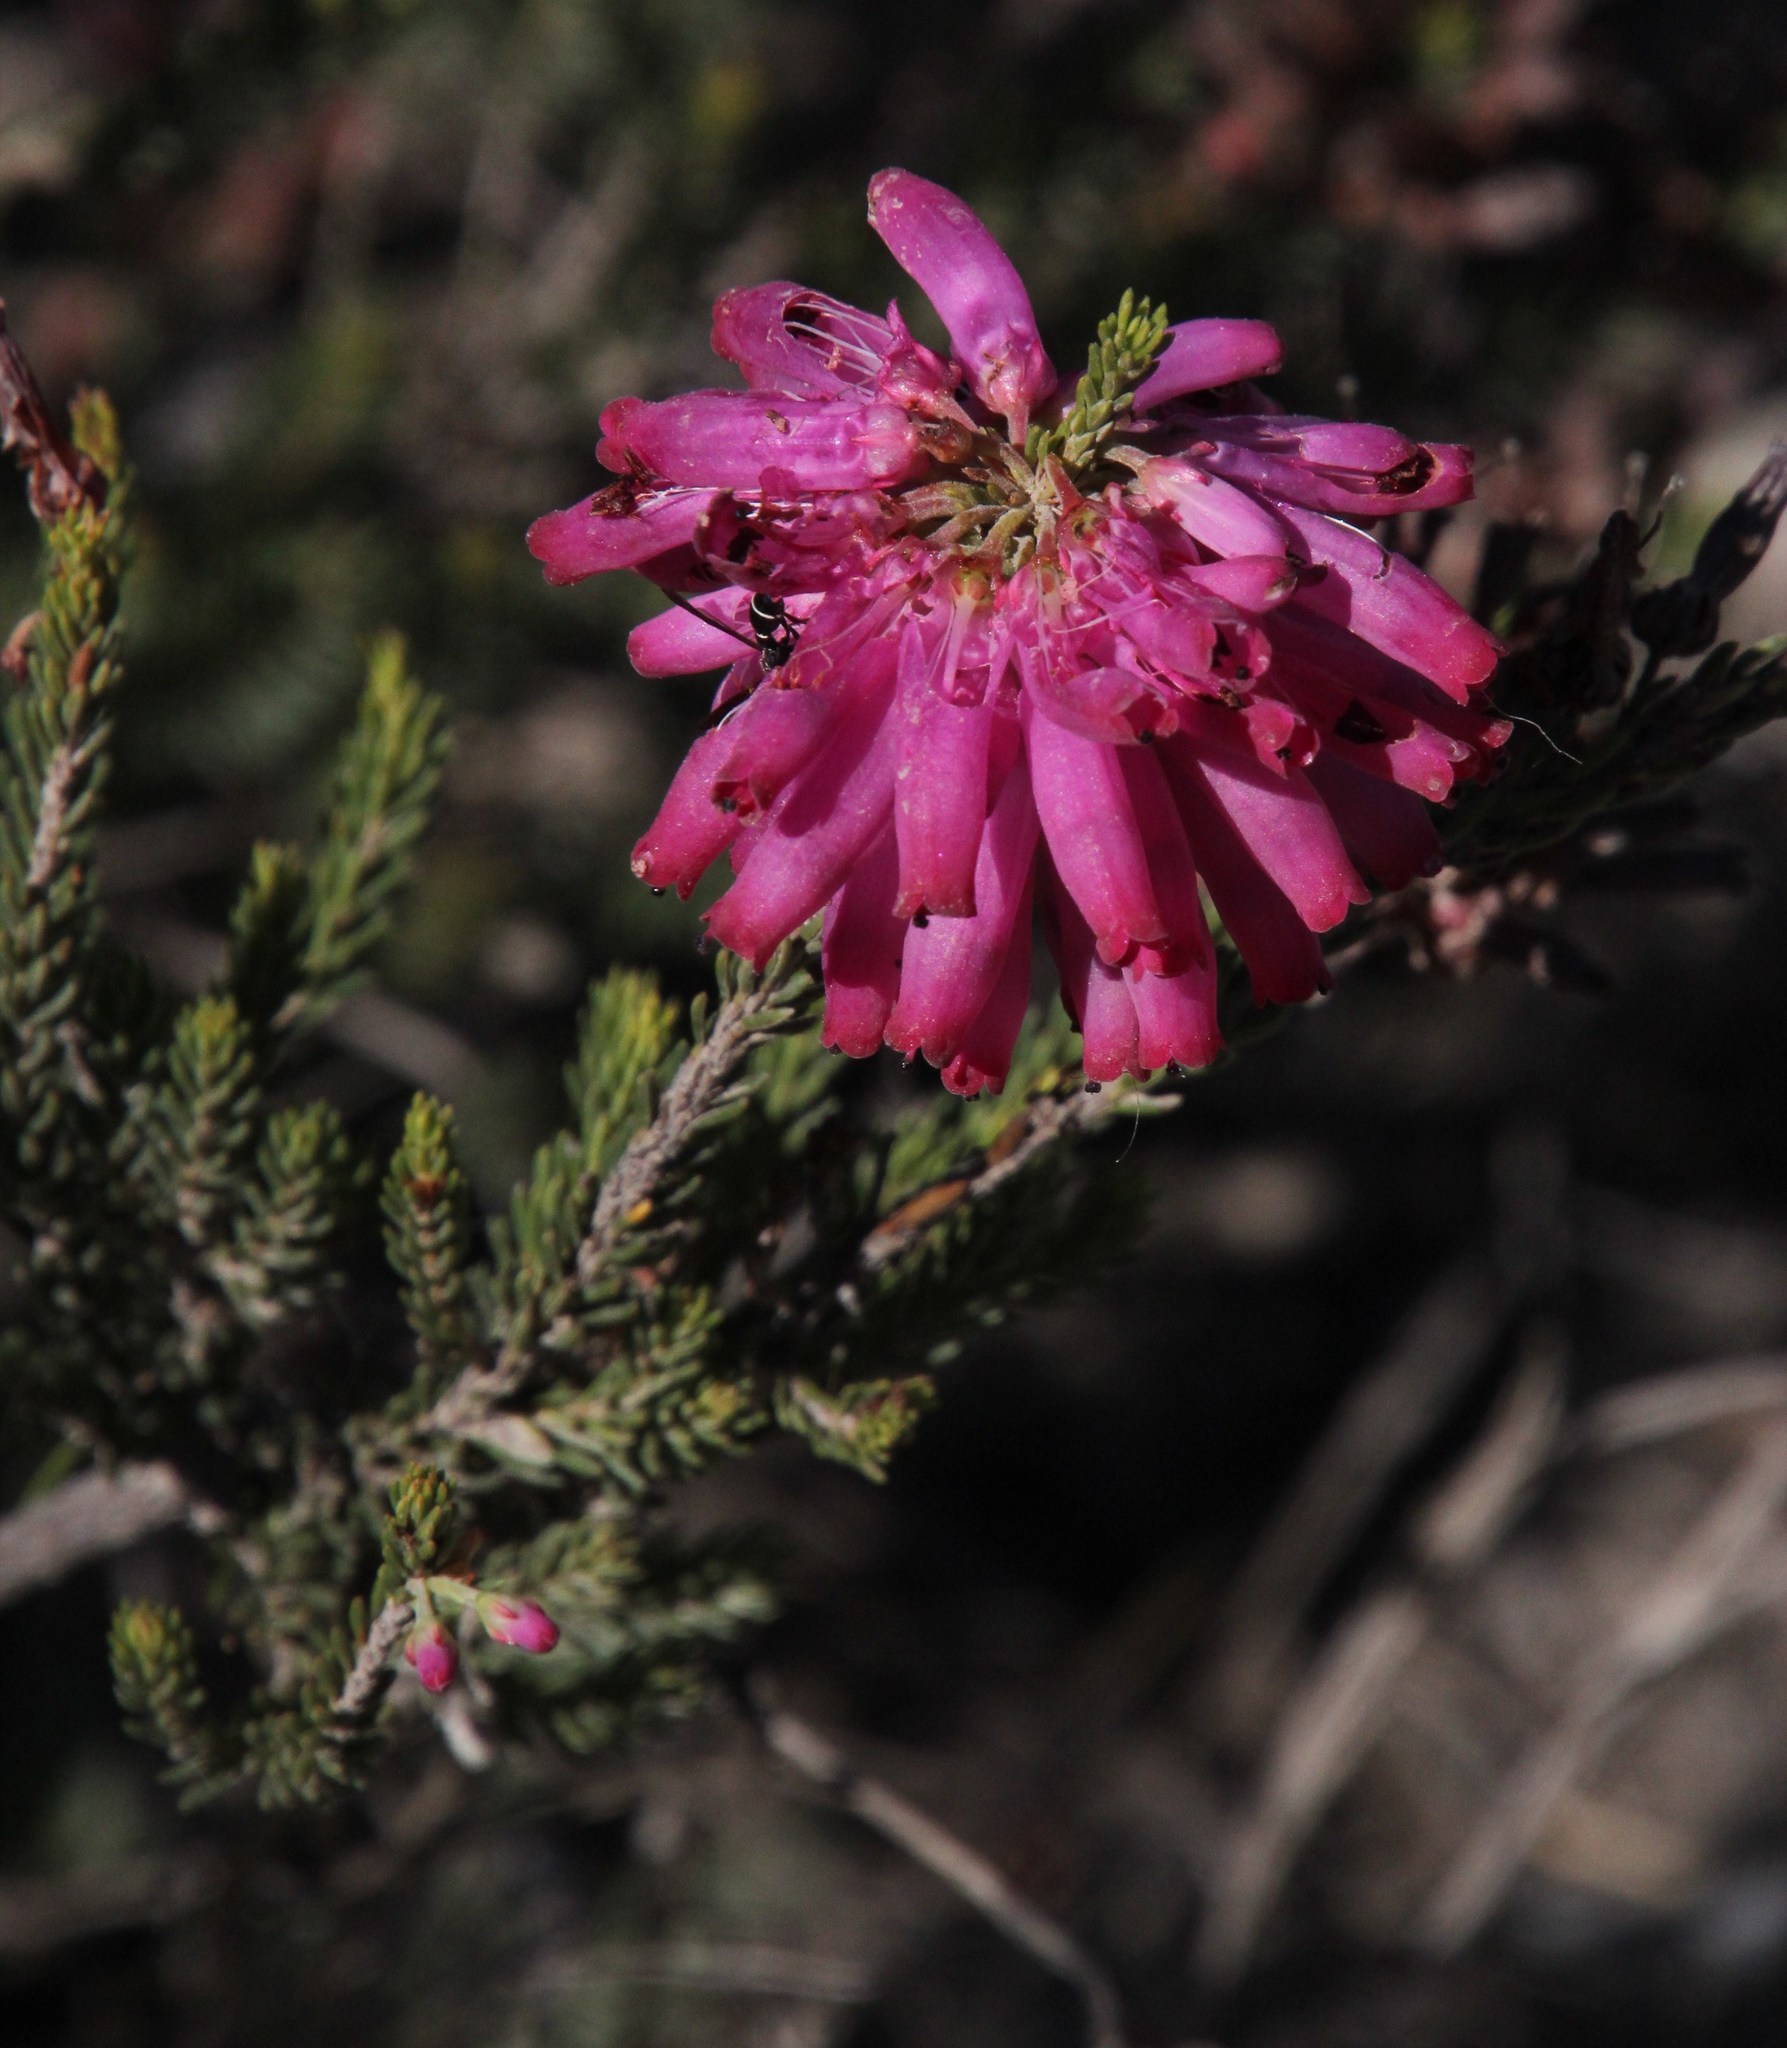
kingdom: Plantae
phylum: Tracheophyta
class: Magnoliopsida
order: Ericales
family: Ericaceae
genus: Erica
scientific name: Erica mammosa
